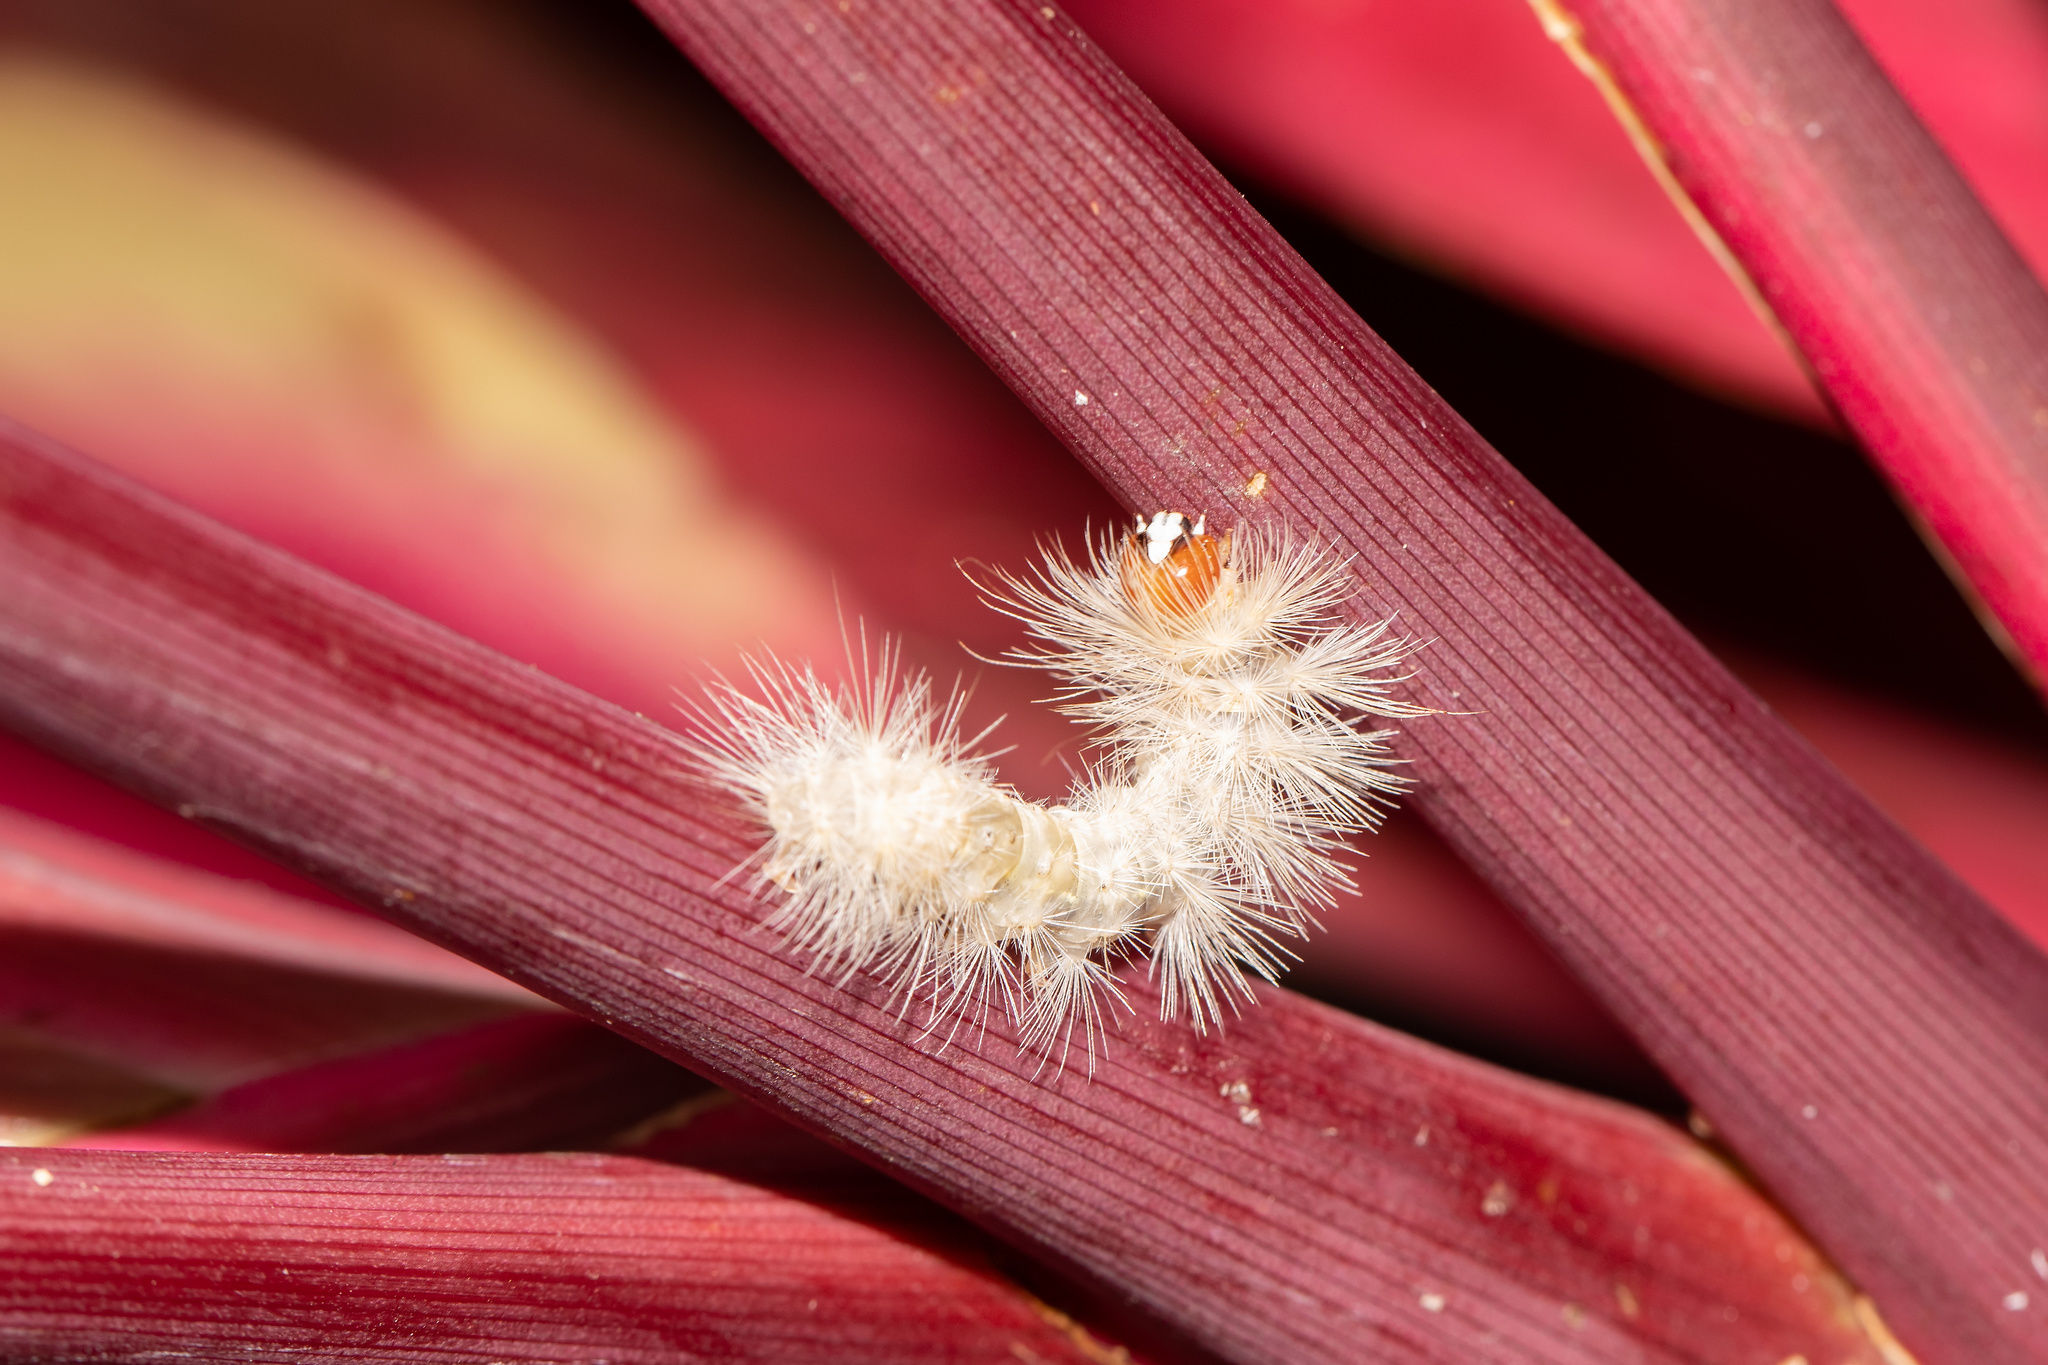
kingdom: Animalia
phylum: Arthropoda
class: Insecta
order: Lepidoptera
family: Erebidae
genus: Lymire
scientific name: Lymire edwardsii
